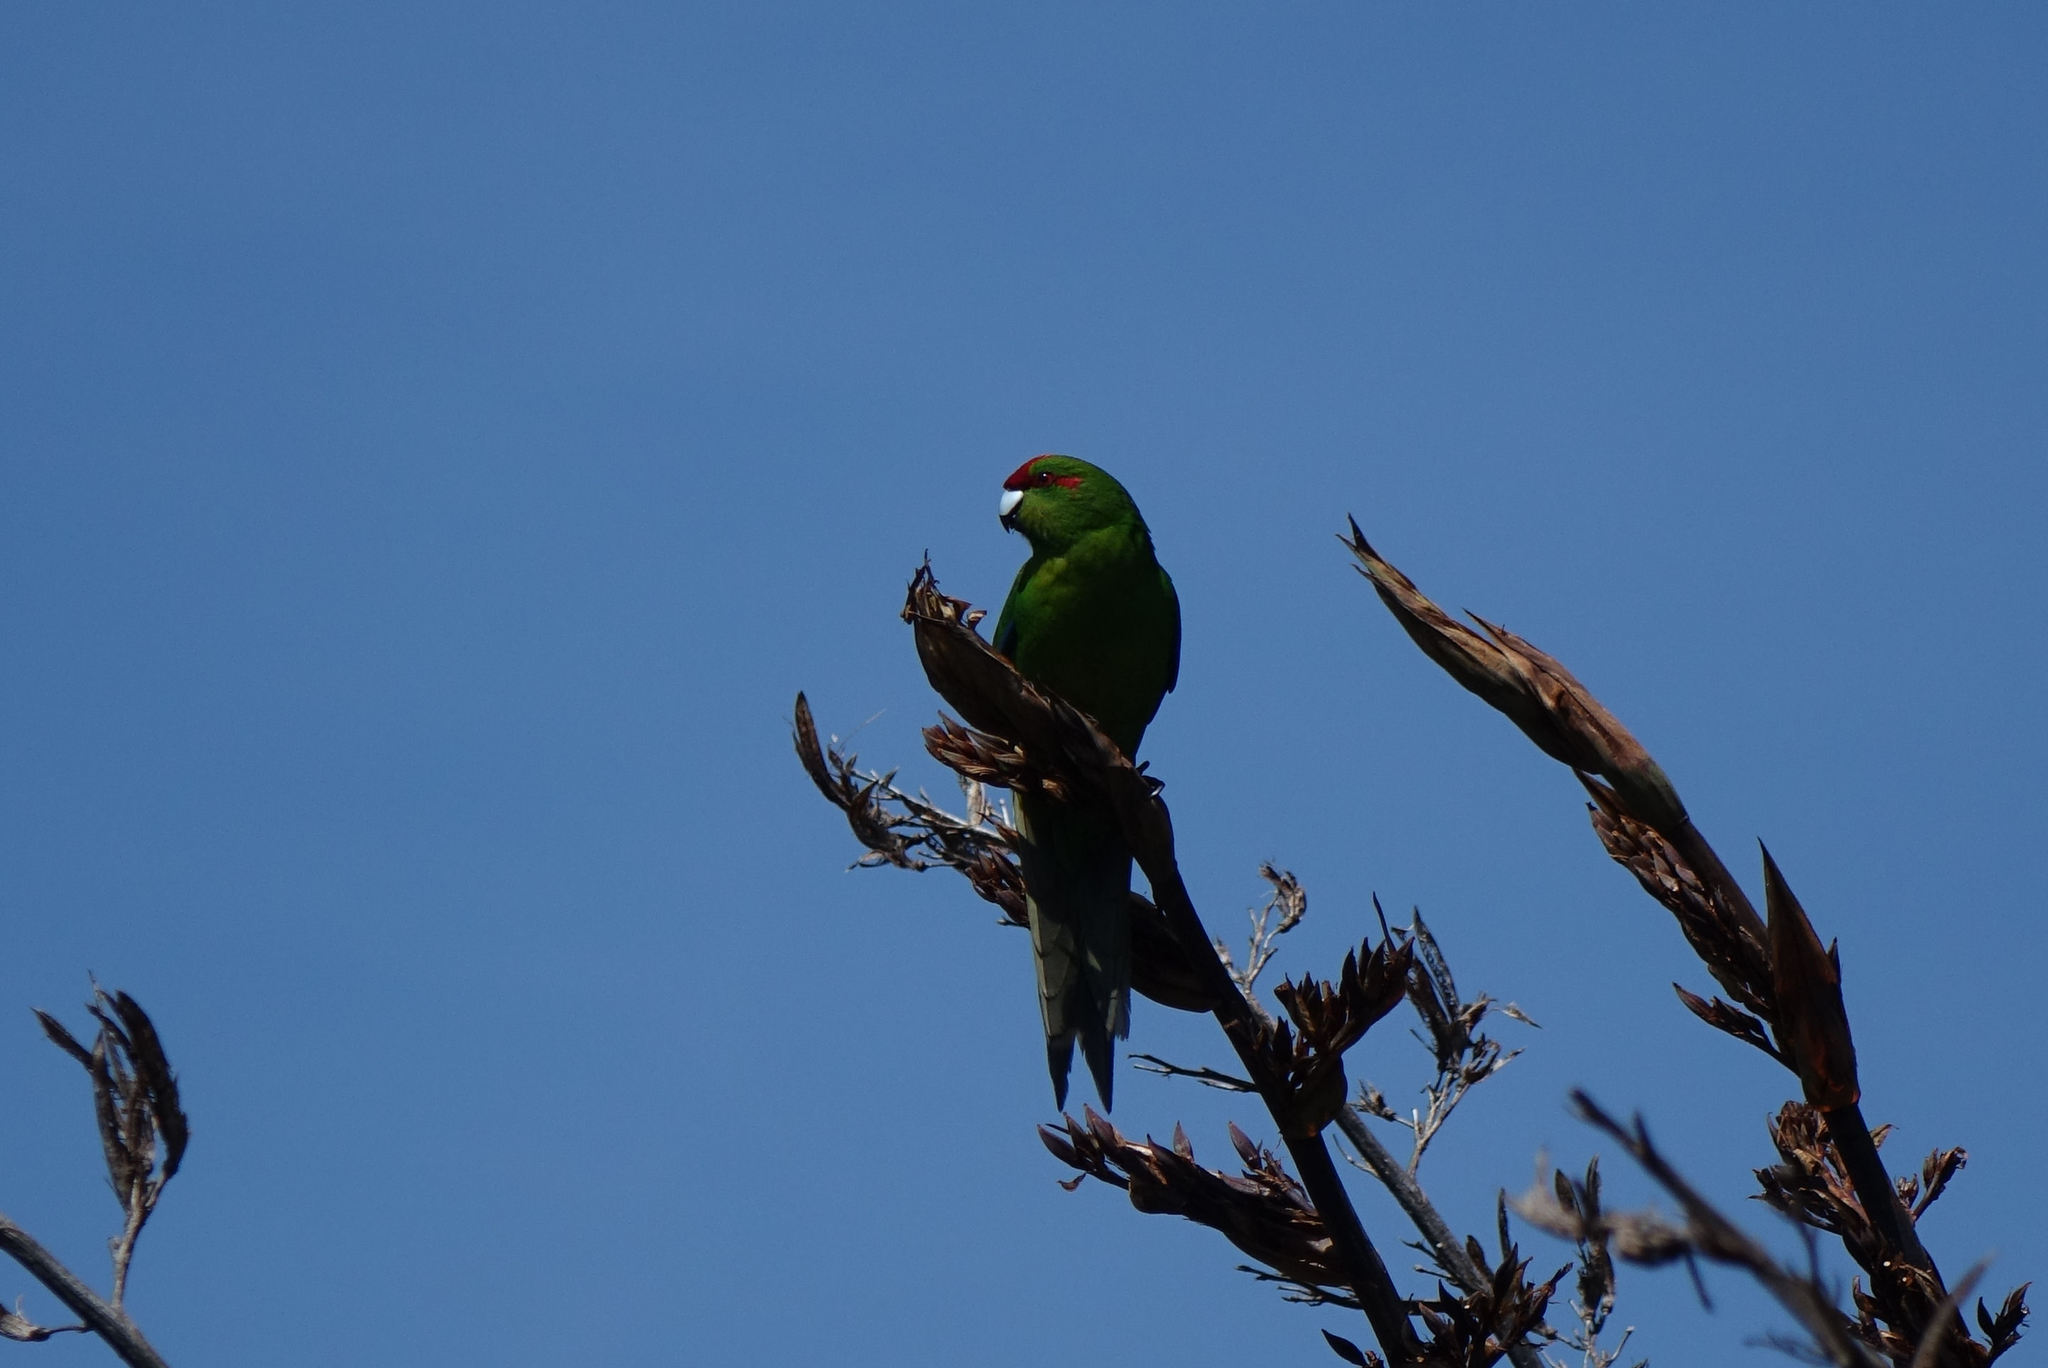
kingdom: Animalia
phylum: Chordata
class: Aves
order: Psittaciformes
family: Psittacidae
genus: Cyanoramphus
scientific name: Cyanoramphus novaezelandiae
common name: Red-fronted parakeet
